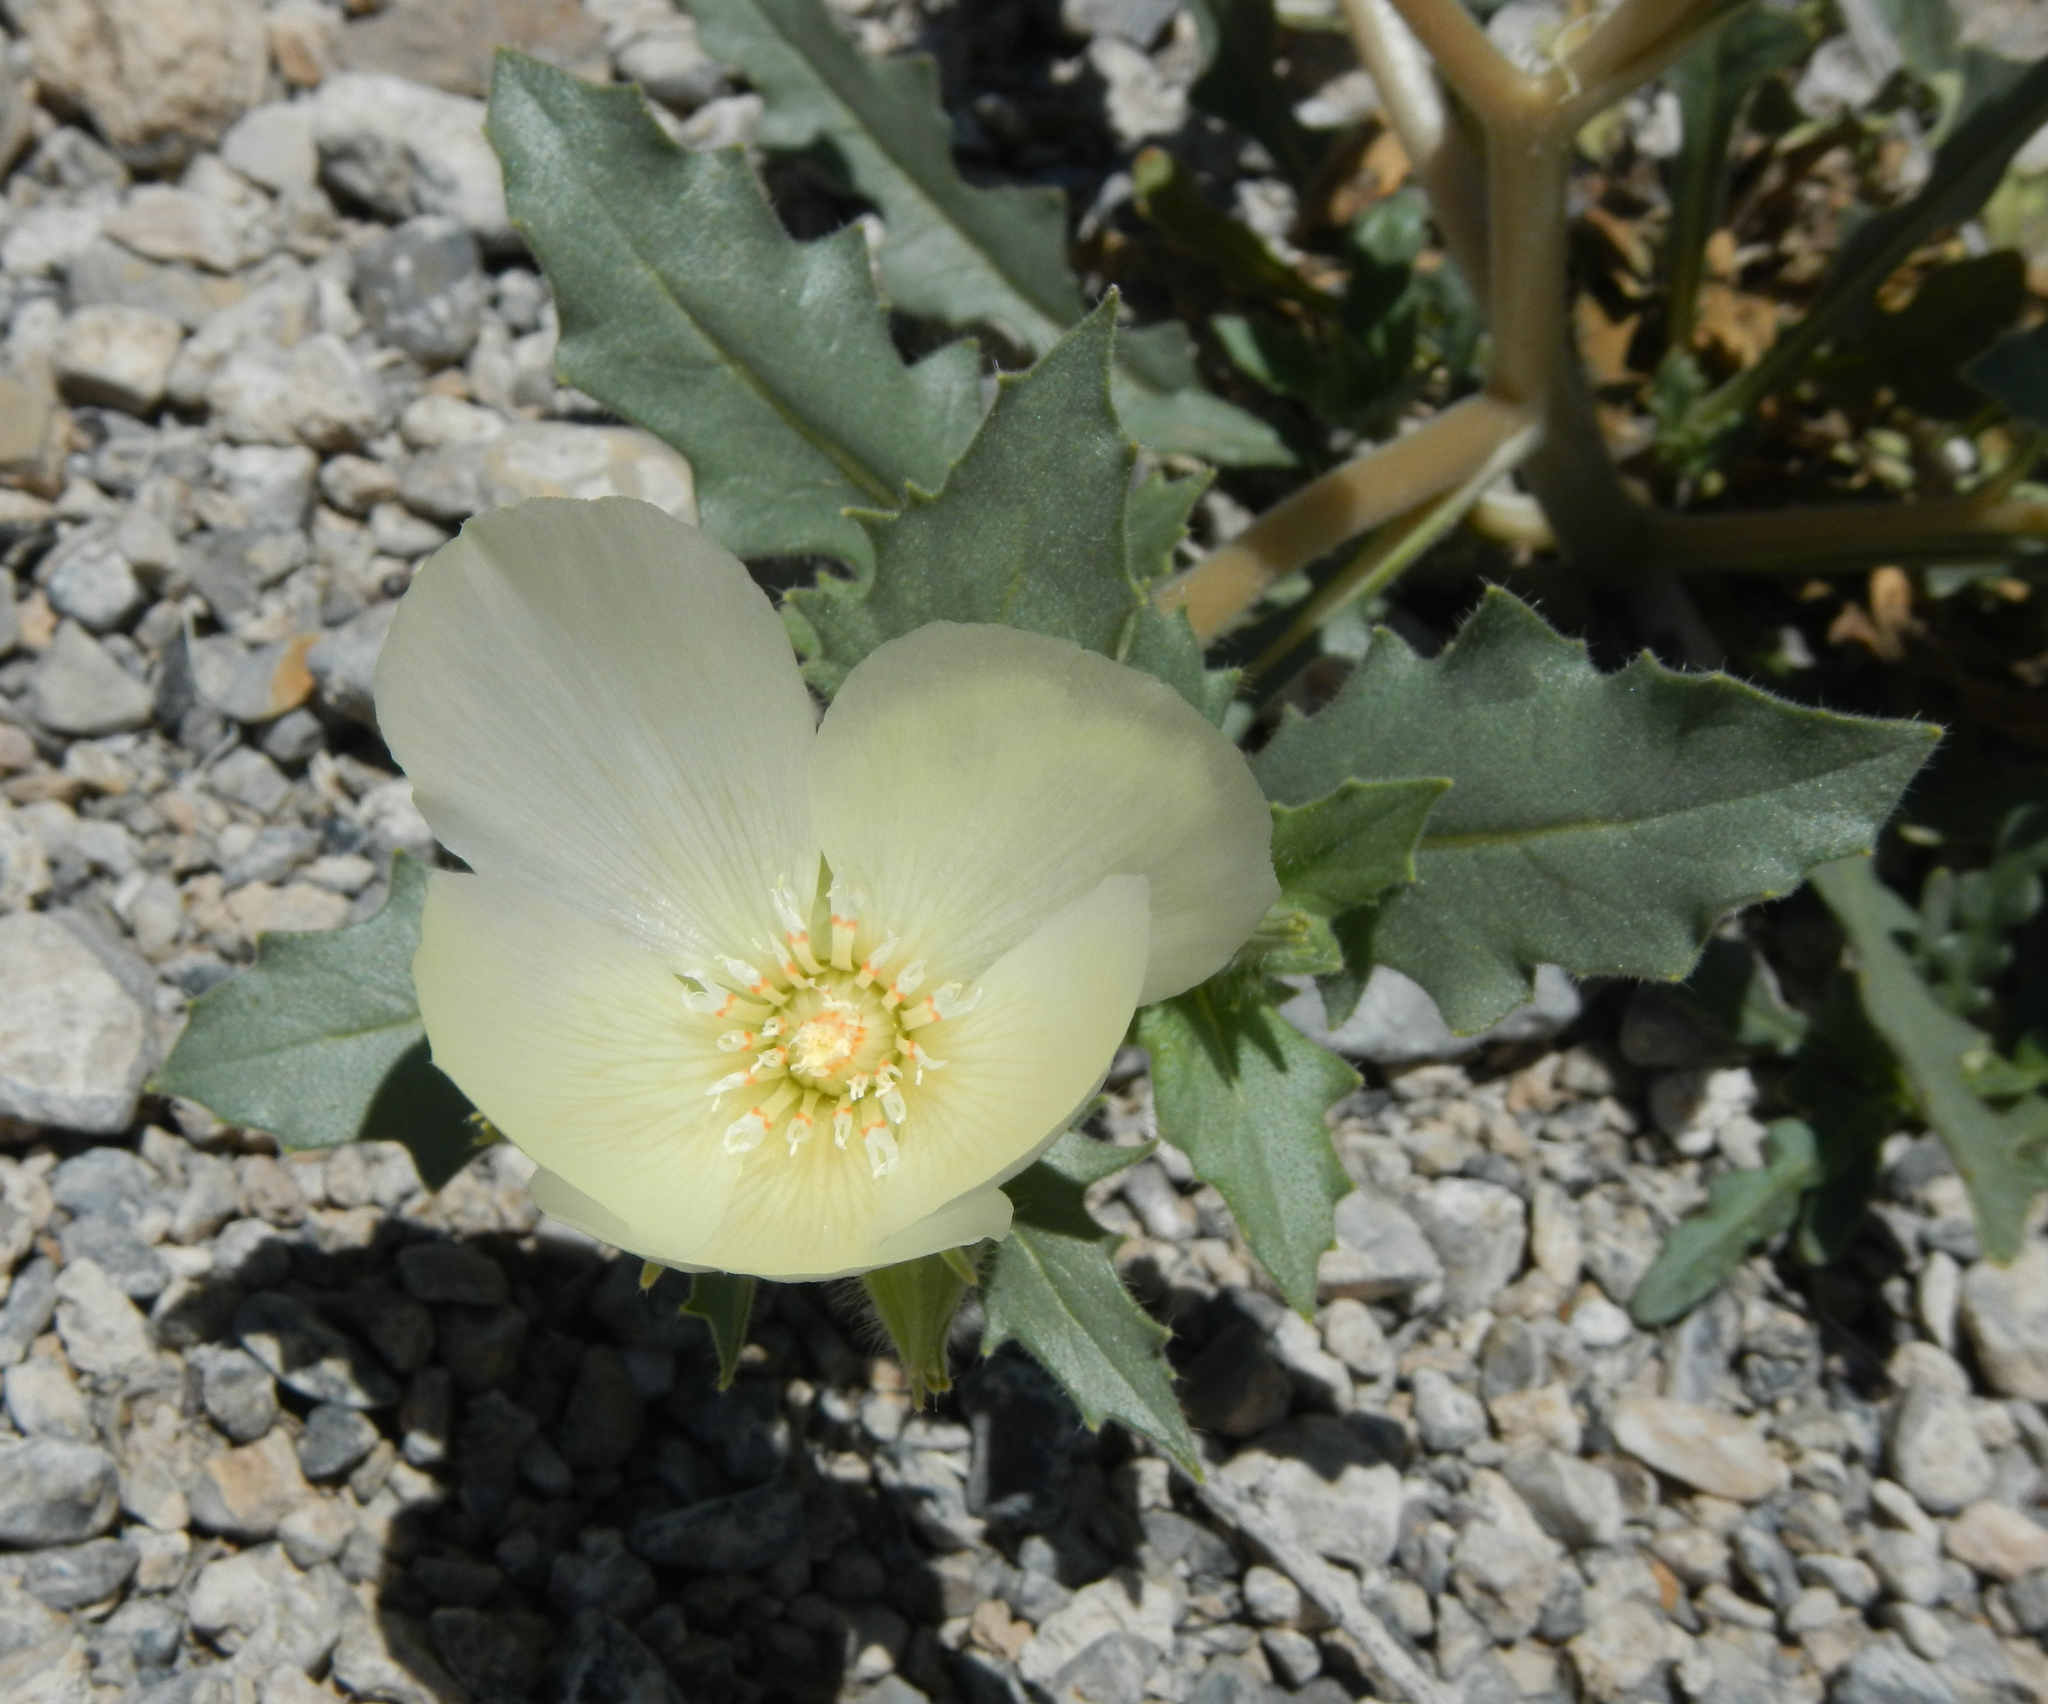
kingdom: Plantae
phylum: Tracheophyta
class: Magnoliopsida
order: Cornales
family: Loasaceae
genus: Mentzelia
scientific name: Mentzelia tricuspis
